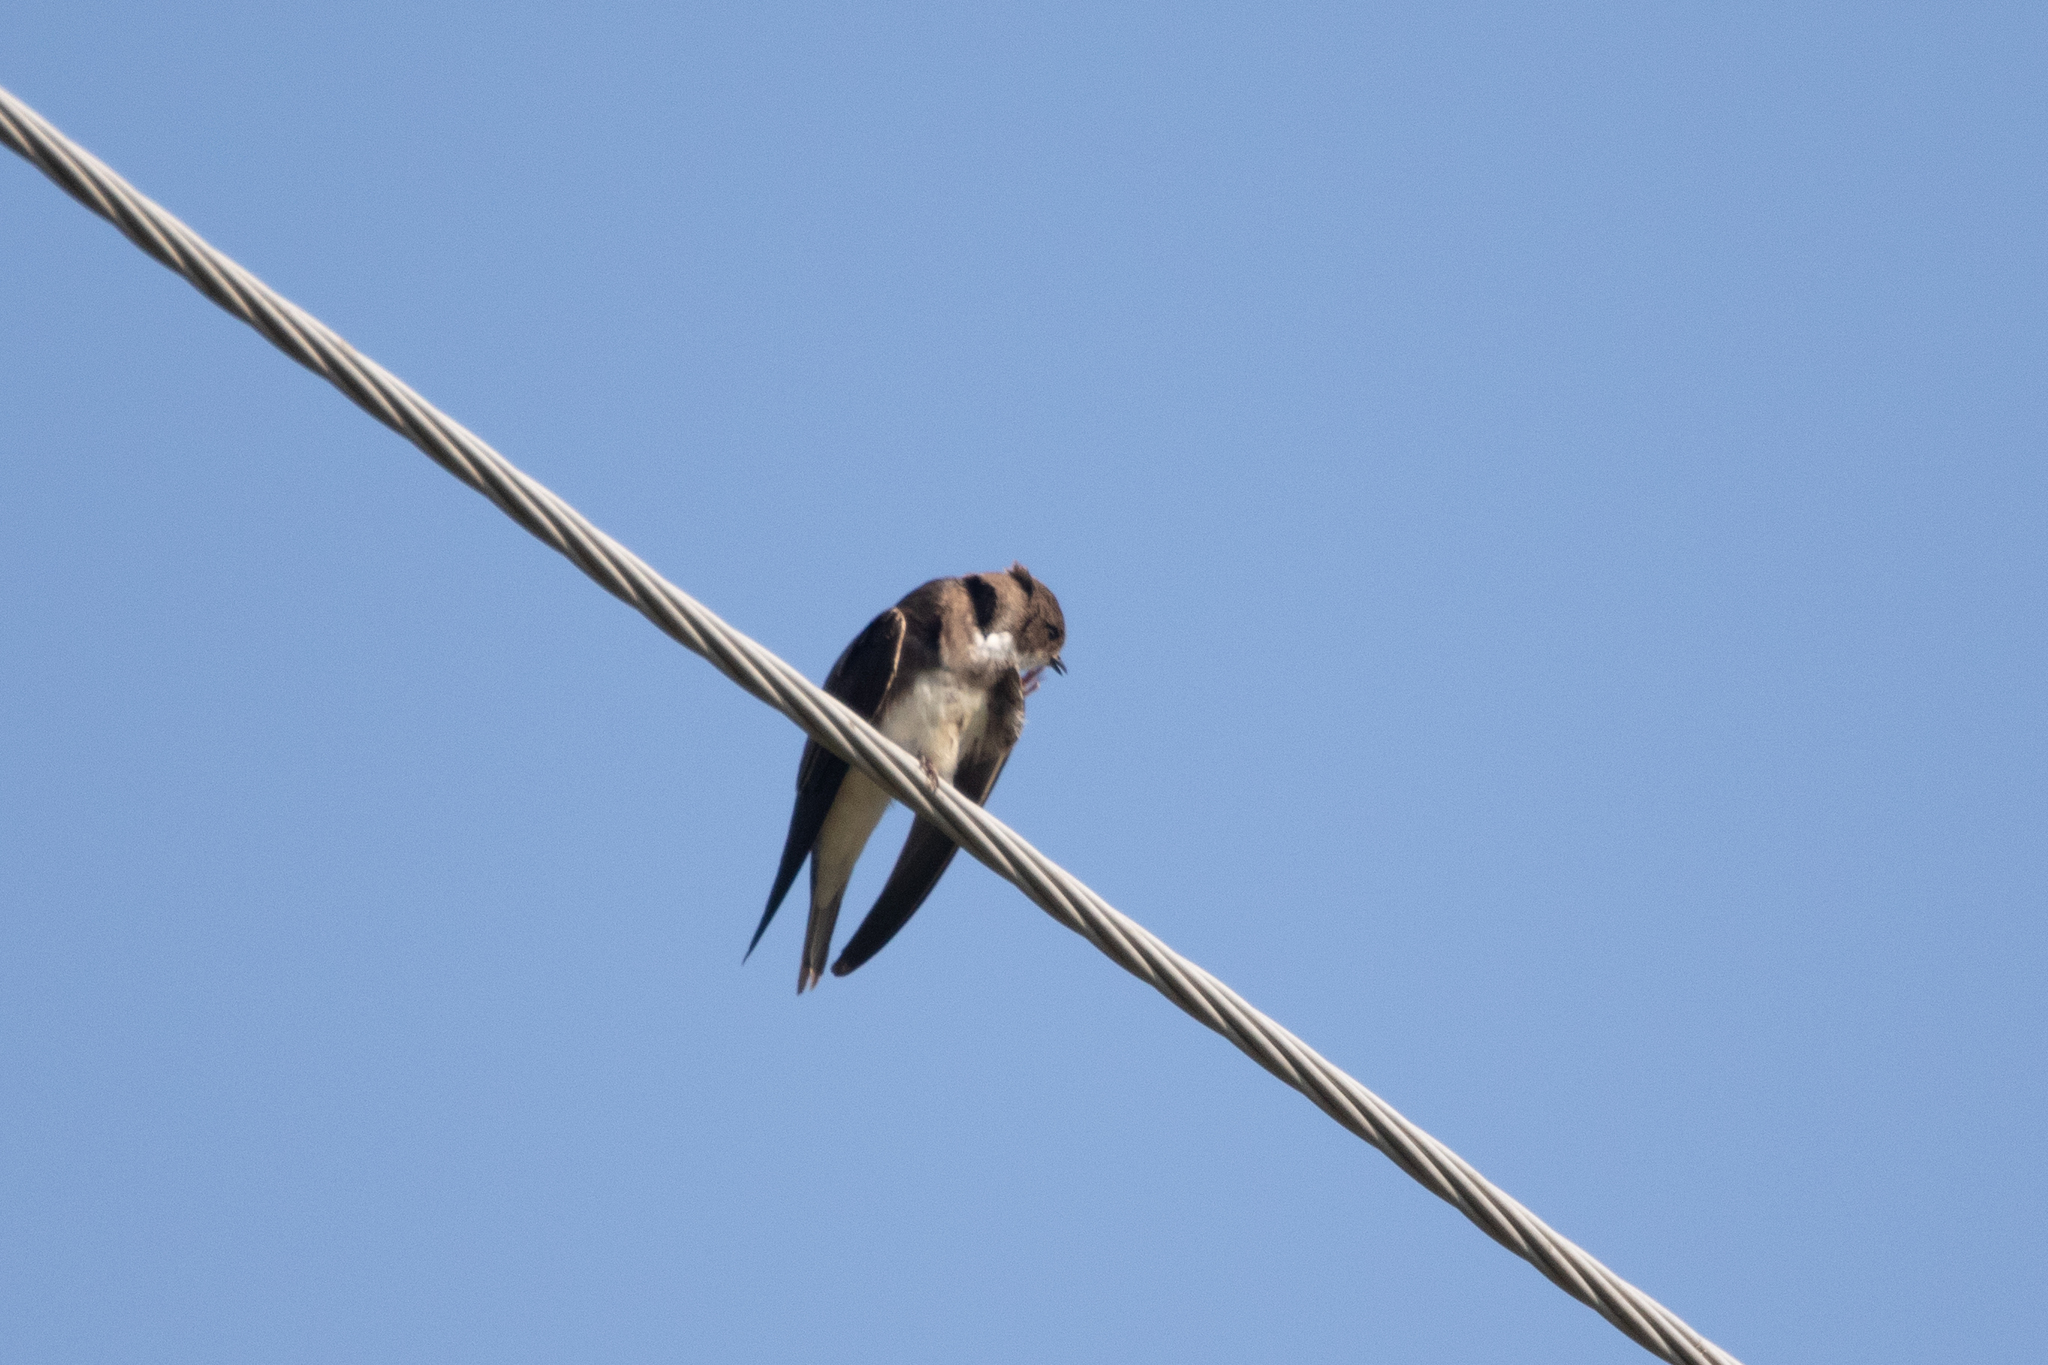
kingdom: Animalia
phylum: Chordata
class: Aves
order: Passeriformes
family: Hirundinidae
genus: Riparia
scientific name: Riparia riparia
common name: Sand martin
